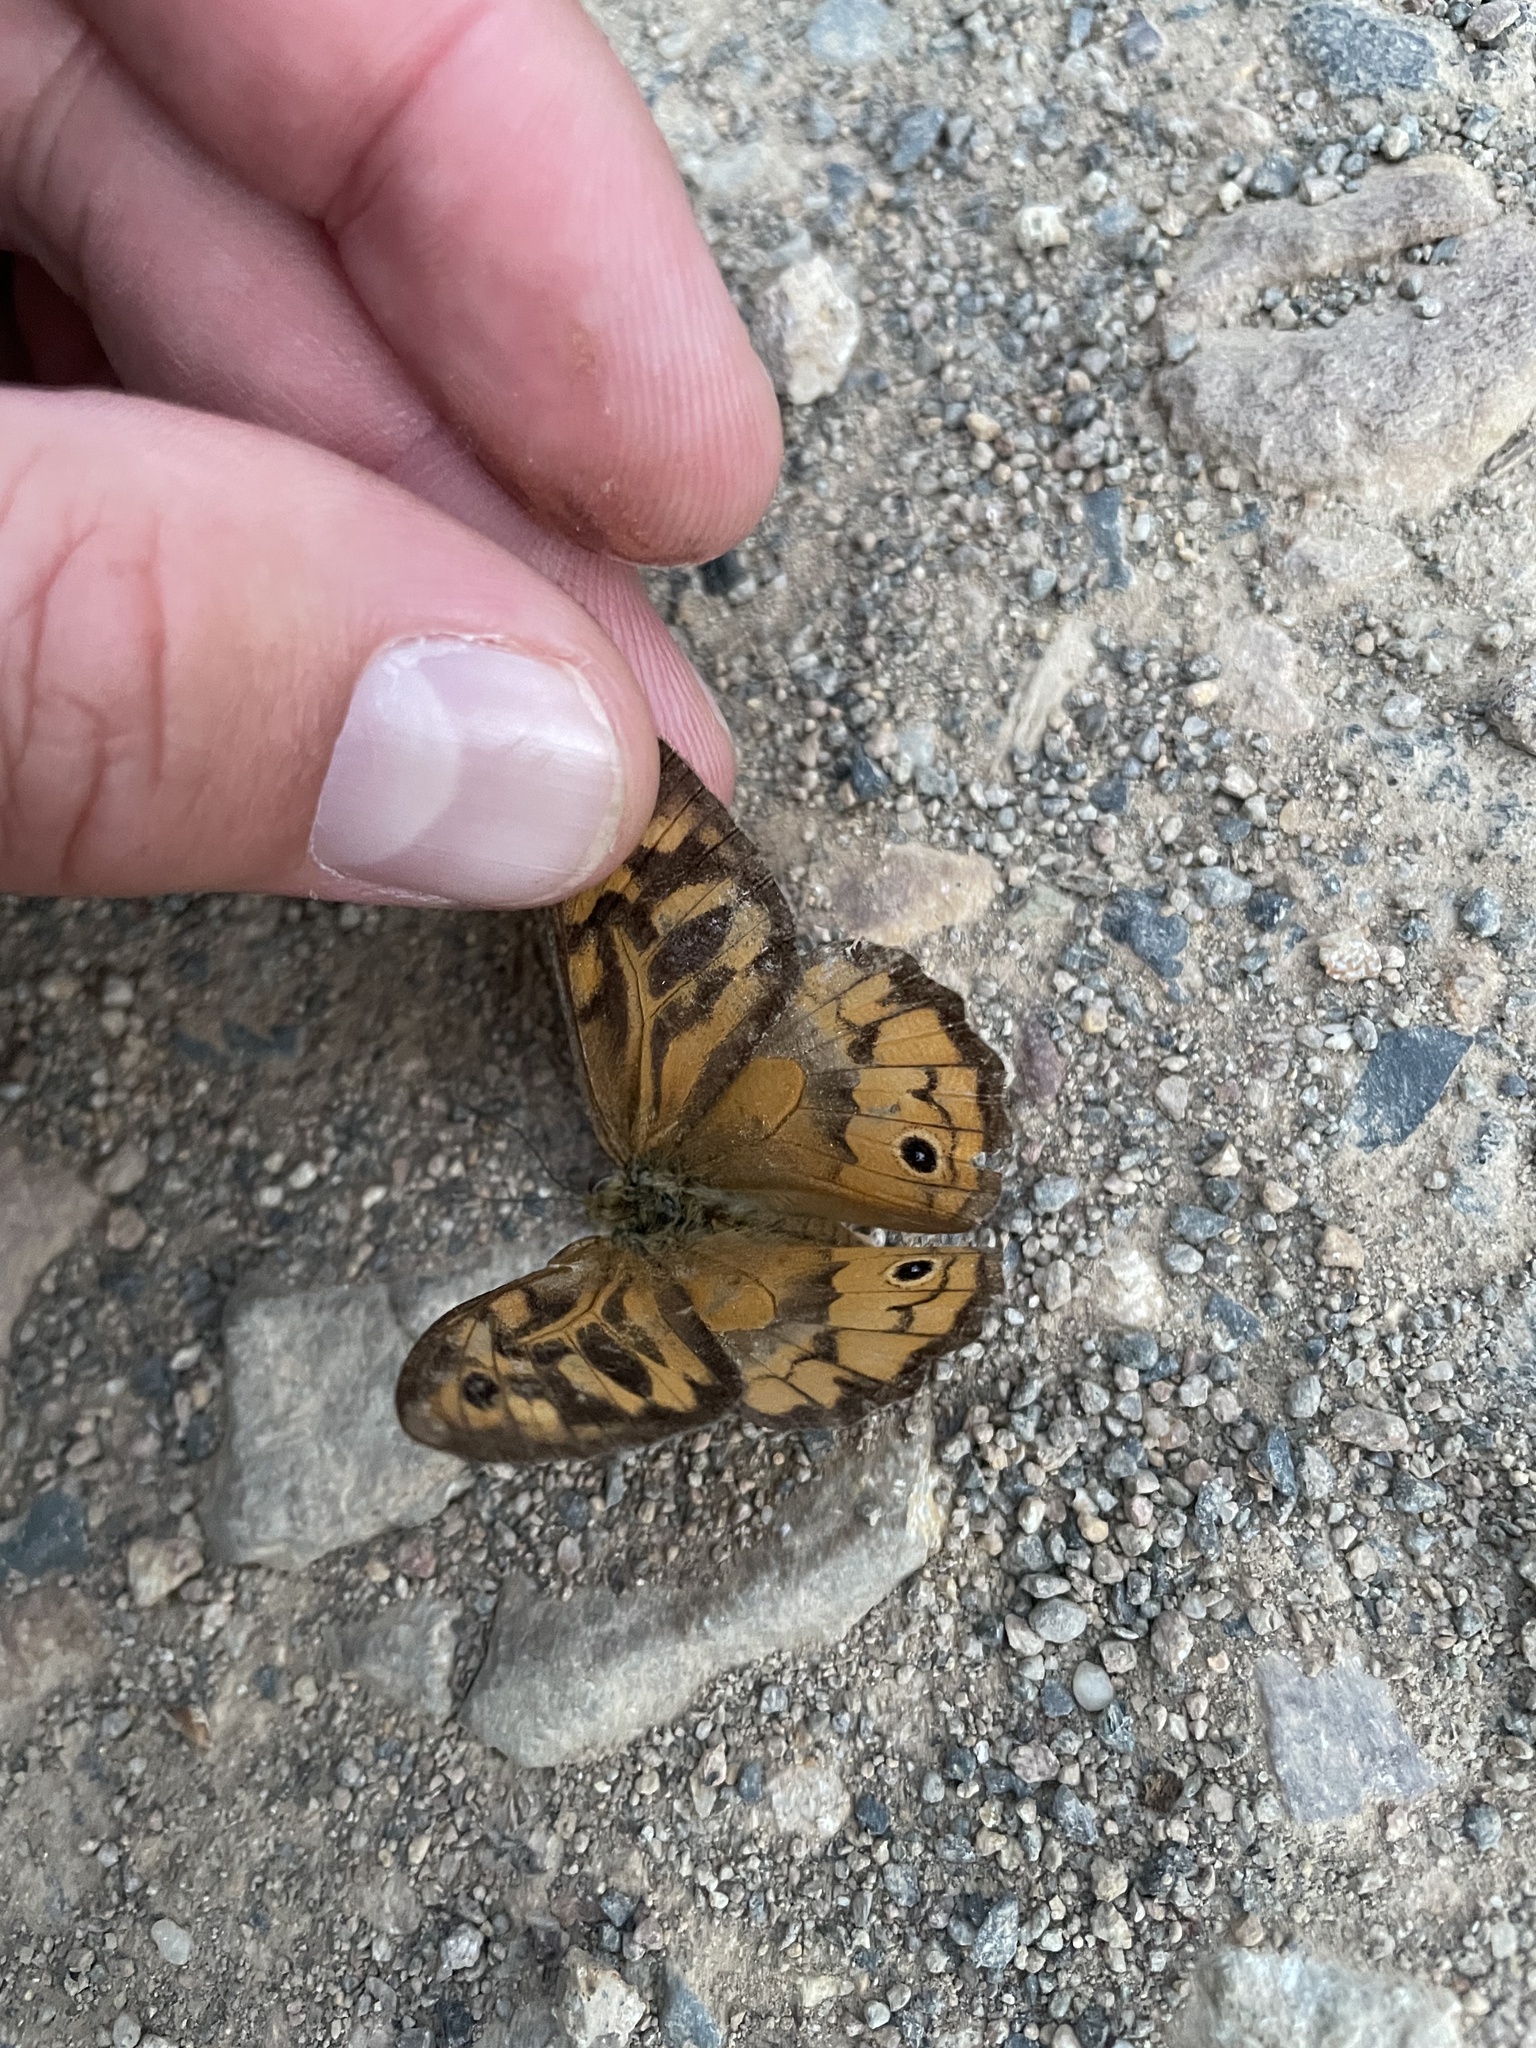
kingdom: Animalia
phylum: Arthropoda
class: Insecta
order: Lepidoptera
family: Nymphalidae
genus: Heteronympha
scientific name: Heteronympha merope
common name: Common brown
